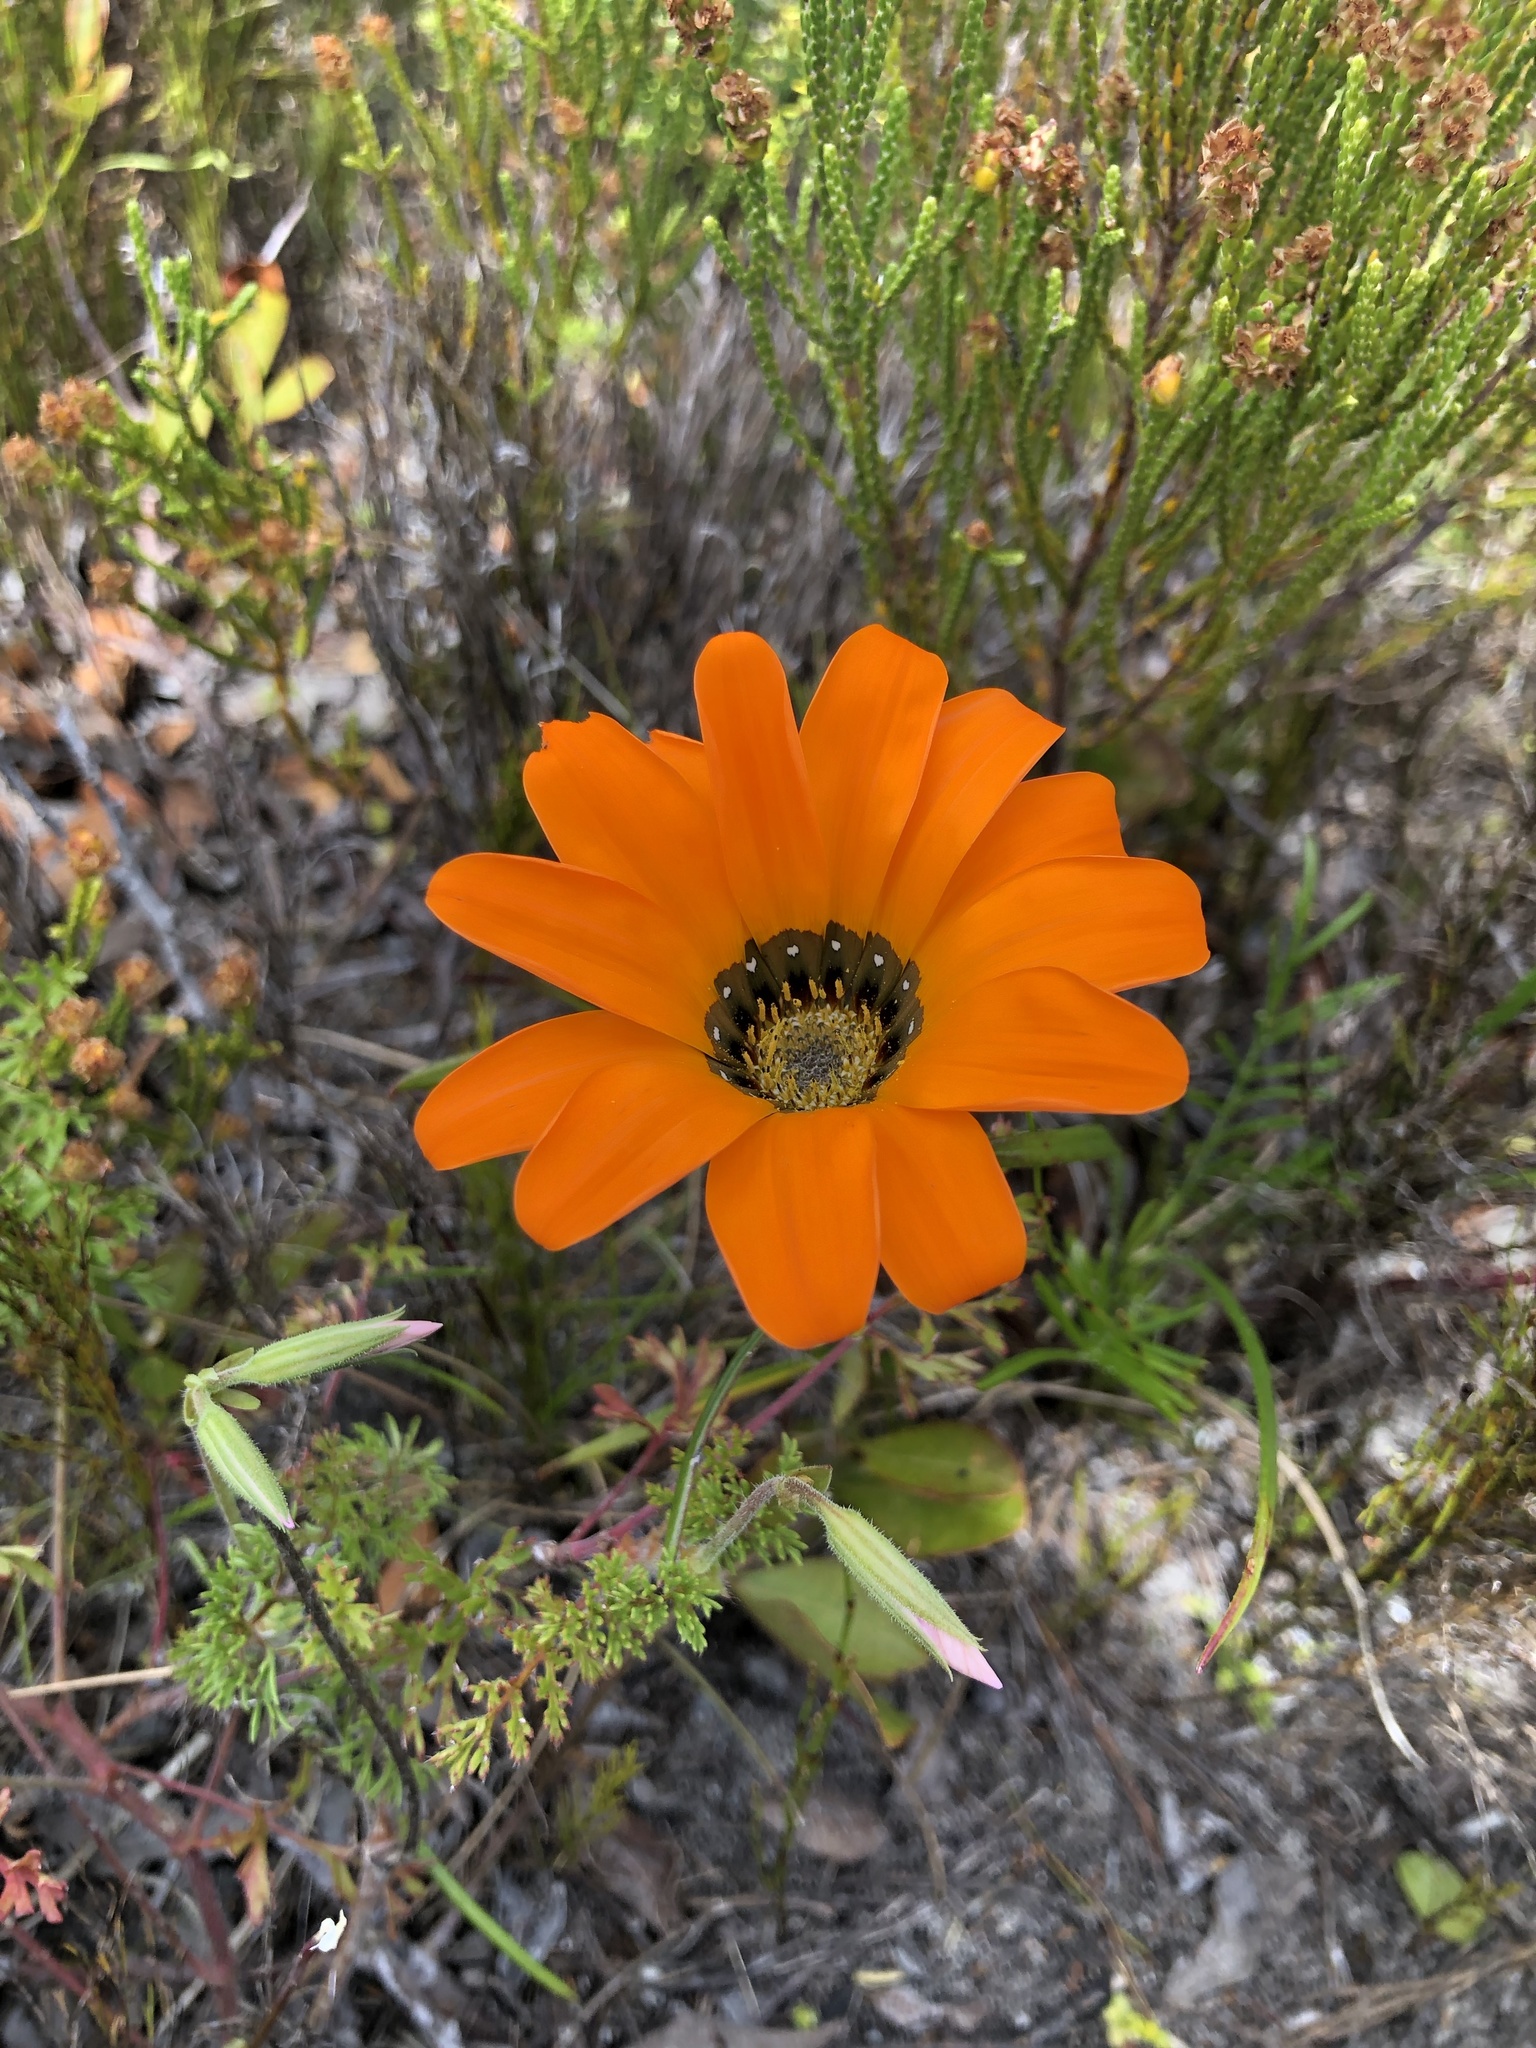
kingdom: Plantae
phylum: Tracheophyta
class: Magnoliopsida
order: Asterales
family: Asteraceae
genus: Gazania
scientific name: Gazania pectinata
